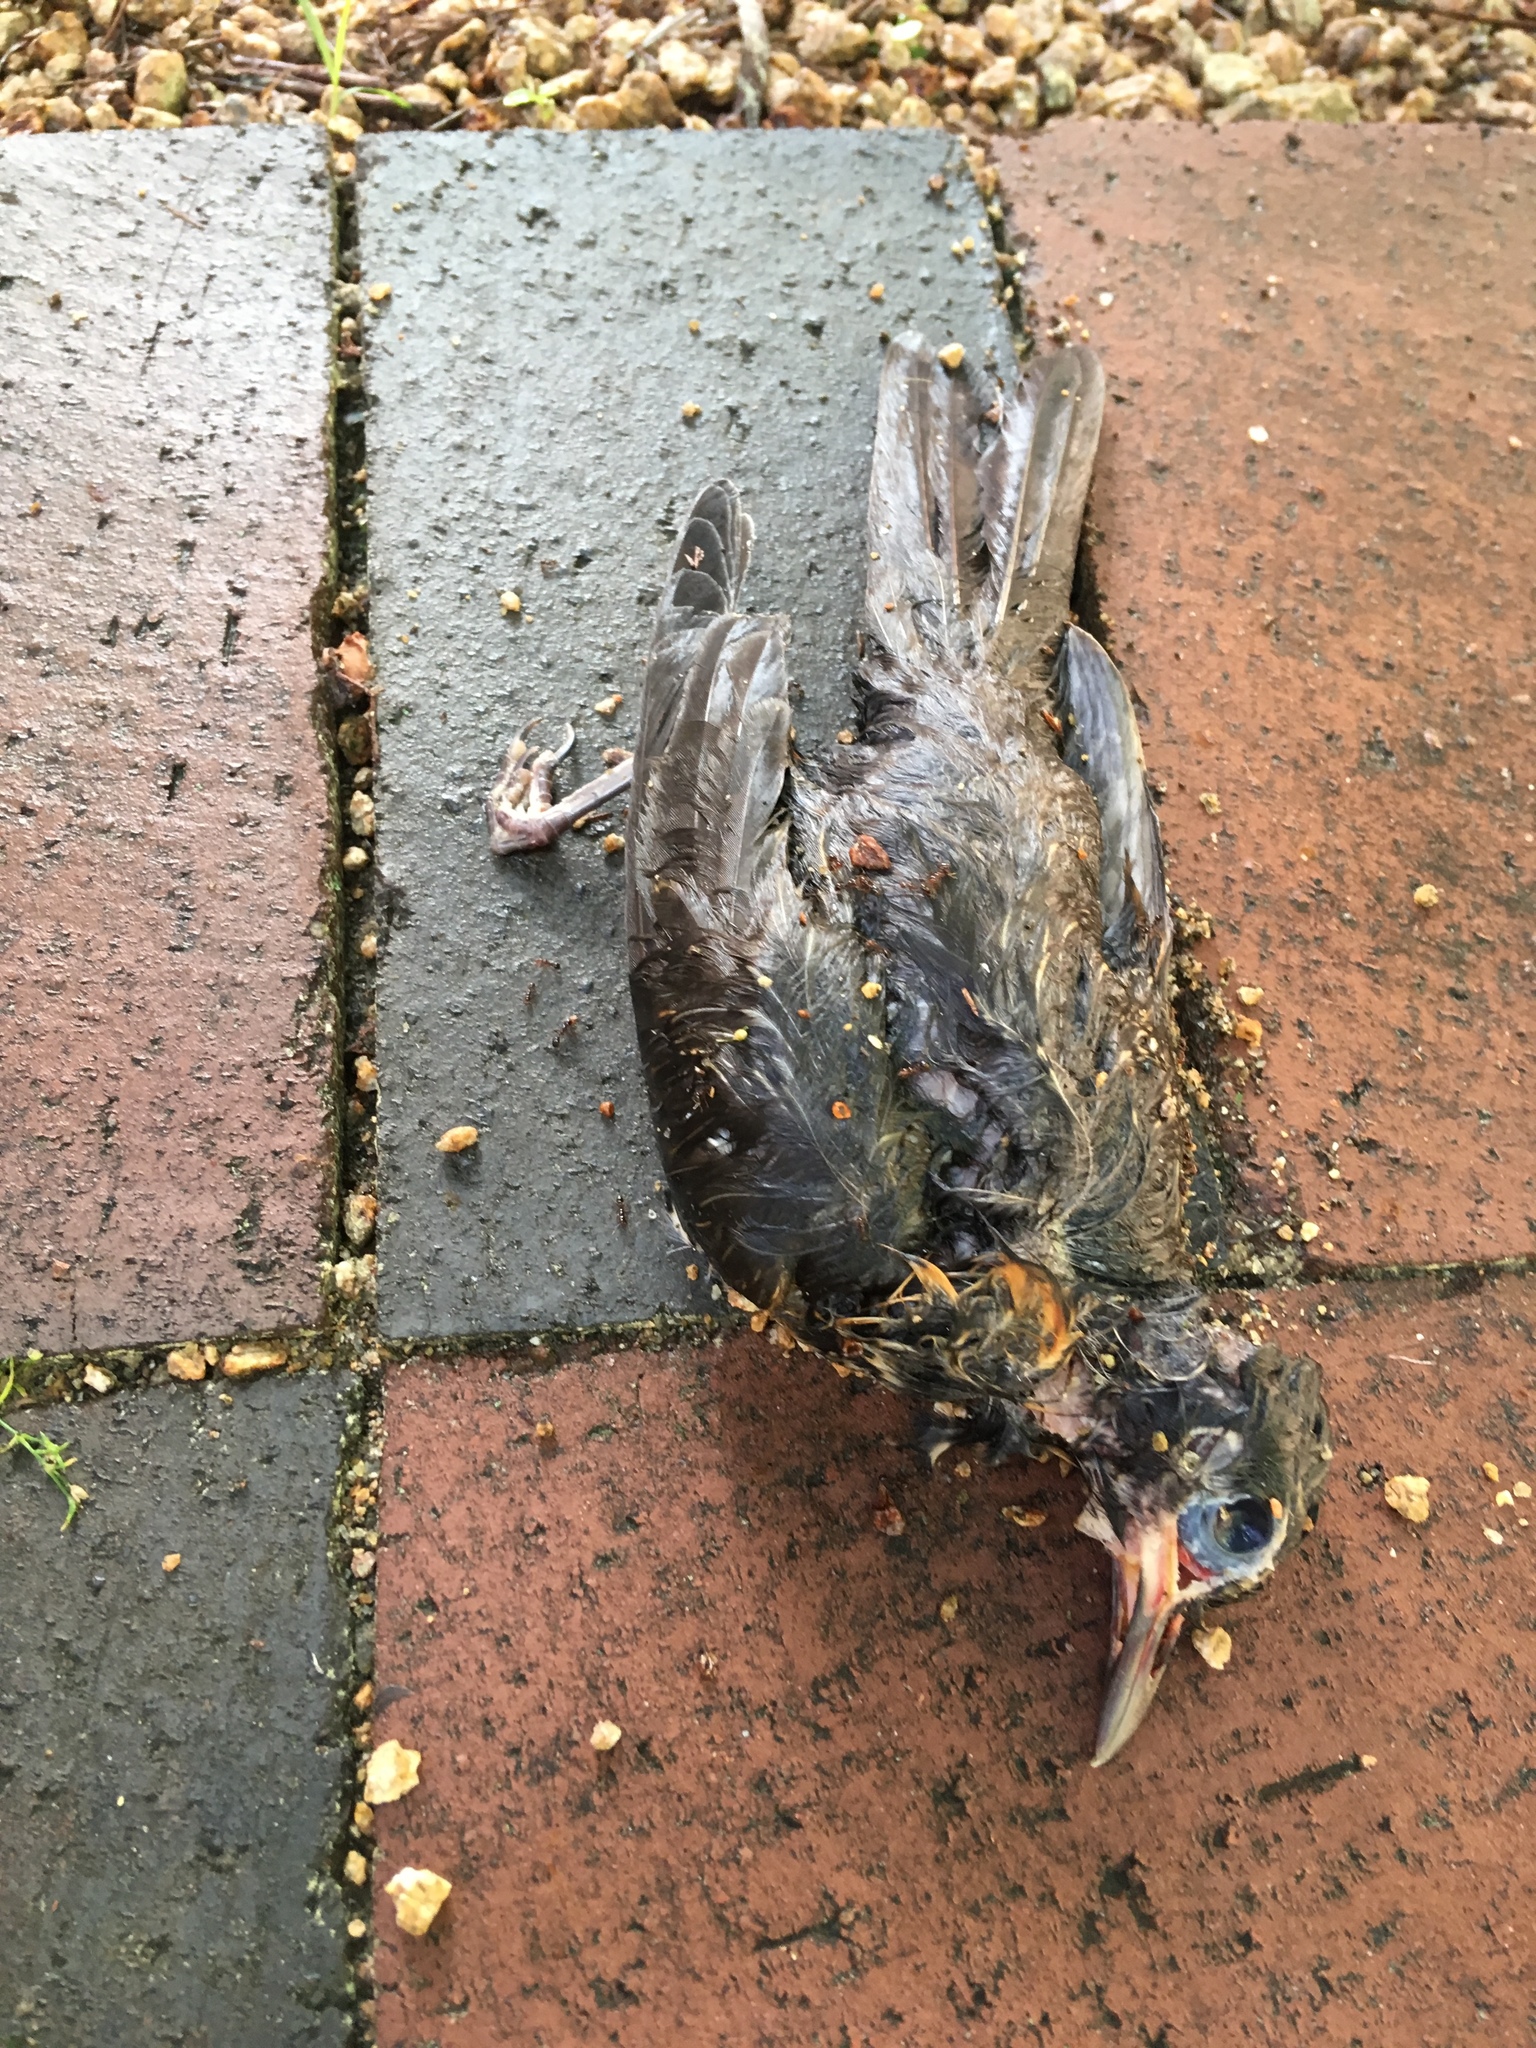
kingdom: Animalia
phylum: Chordata
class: Aves
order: Passeriformes
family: Turdidae
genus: Turdus
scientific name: Turdus migratorius
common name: American robin
